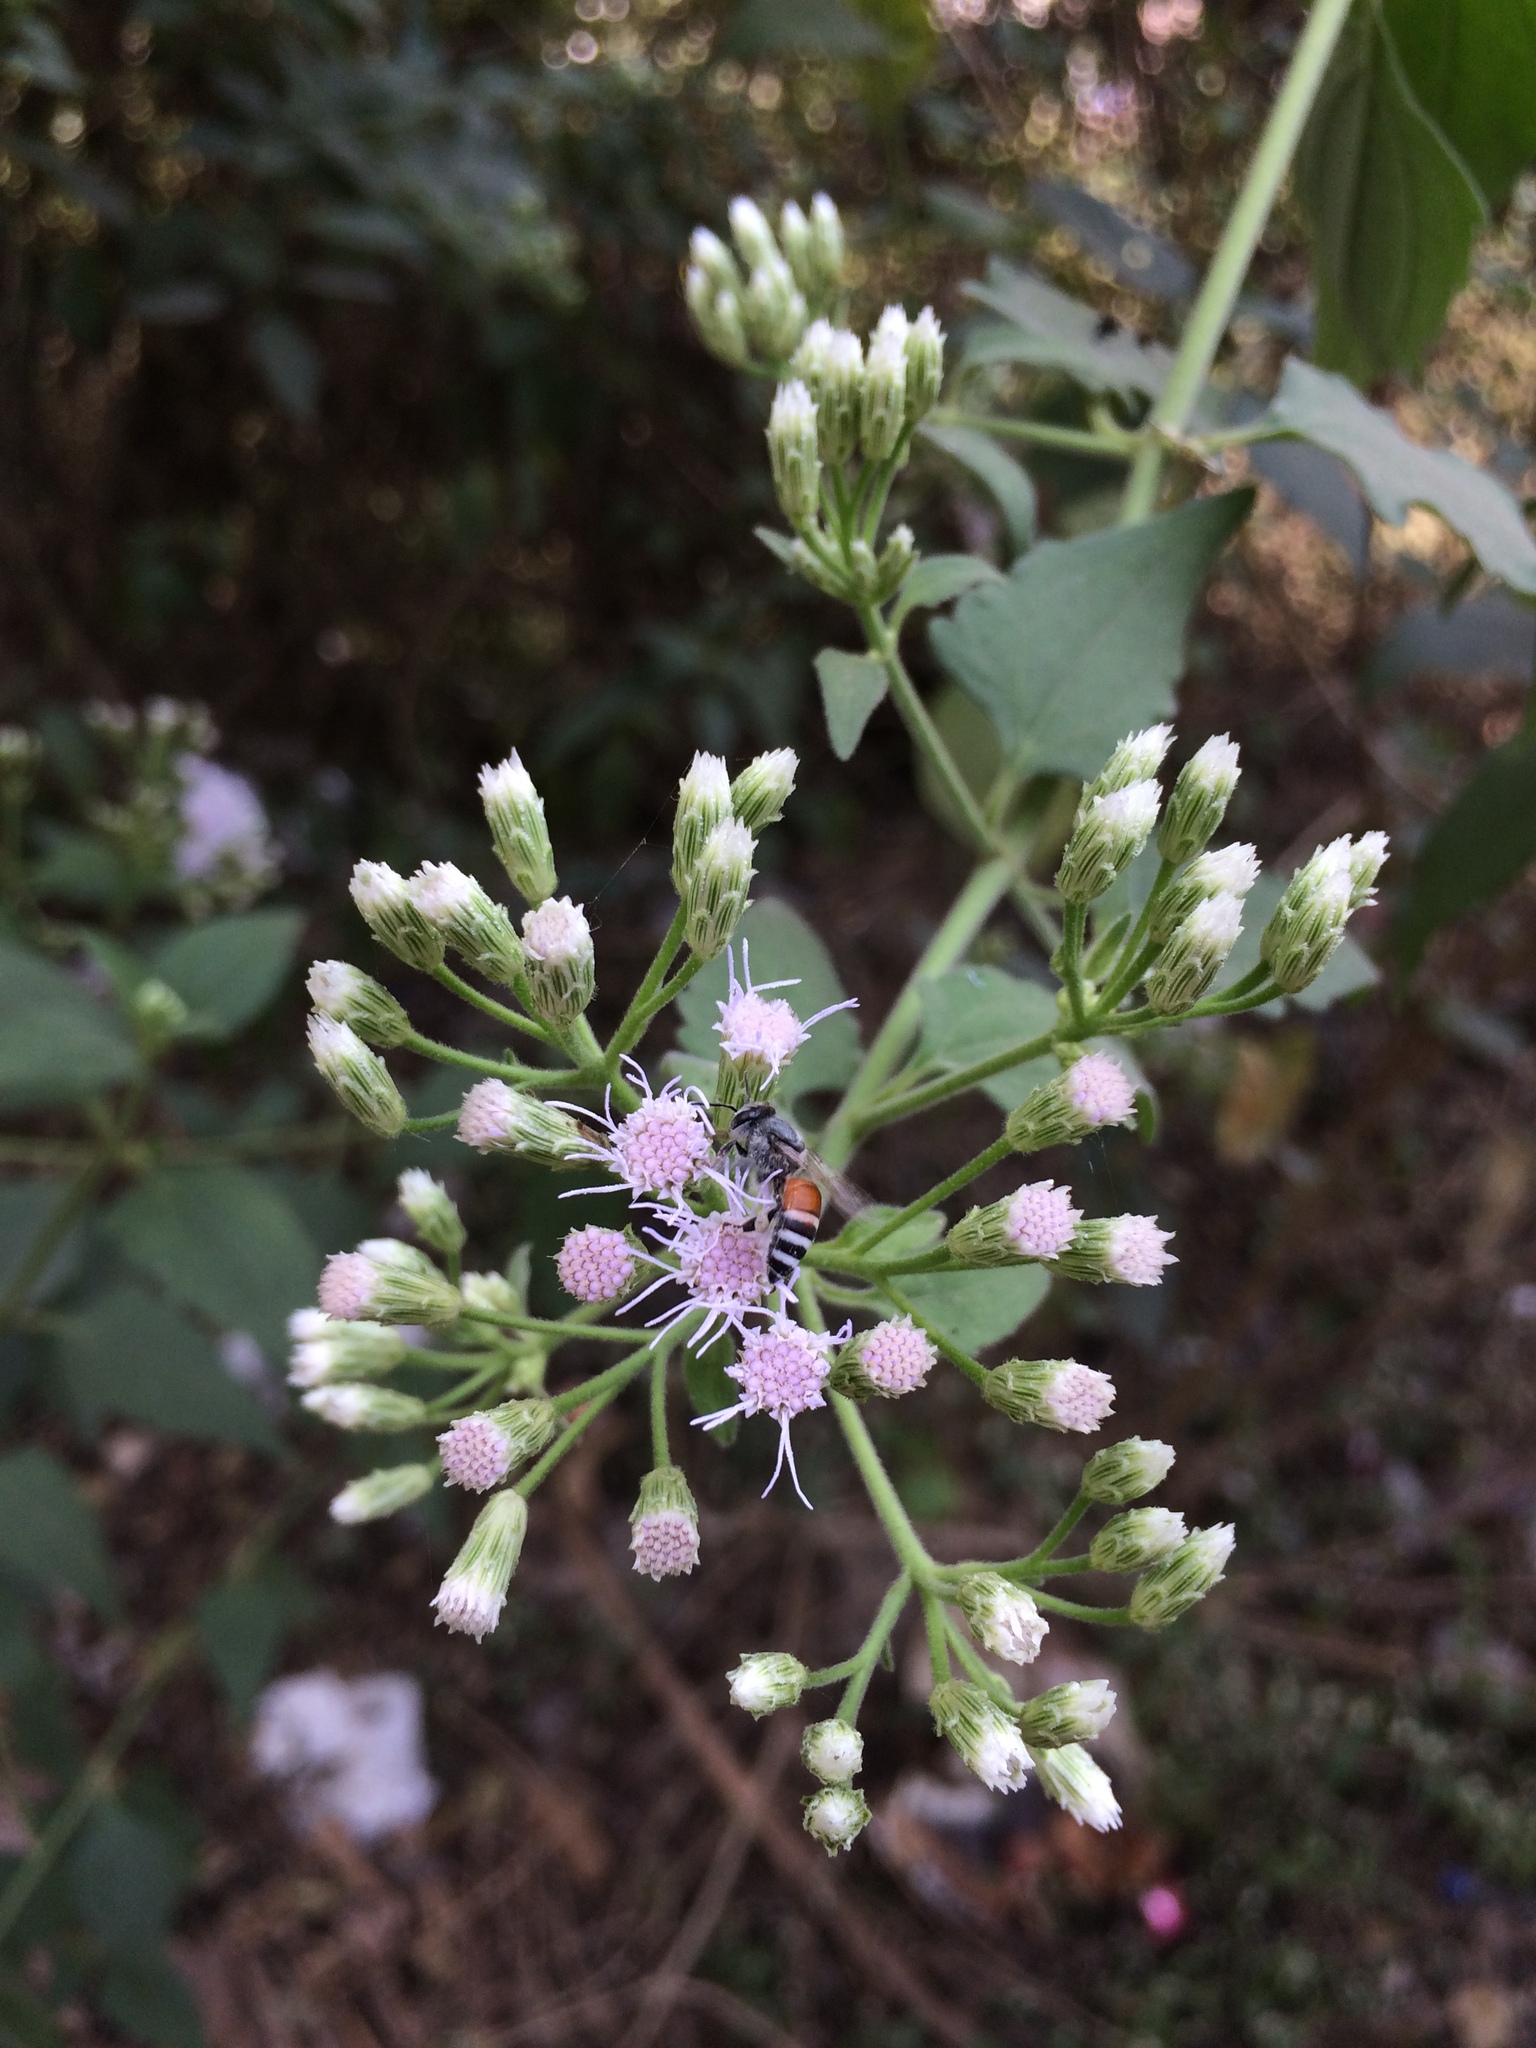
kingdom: Animalia
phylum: Arthropoda
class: Insecta
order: Hymenoptera
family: Apidae
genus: Apis
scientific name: Apis florea
